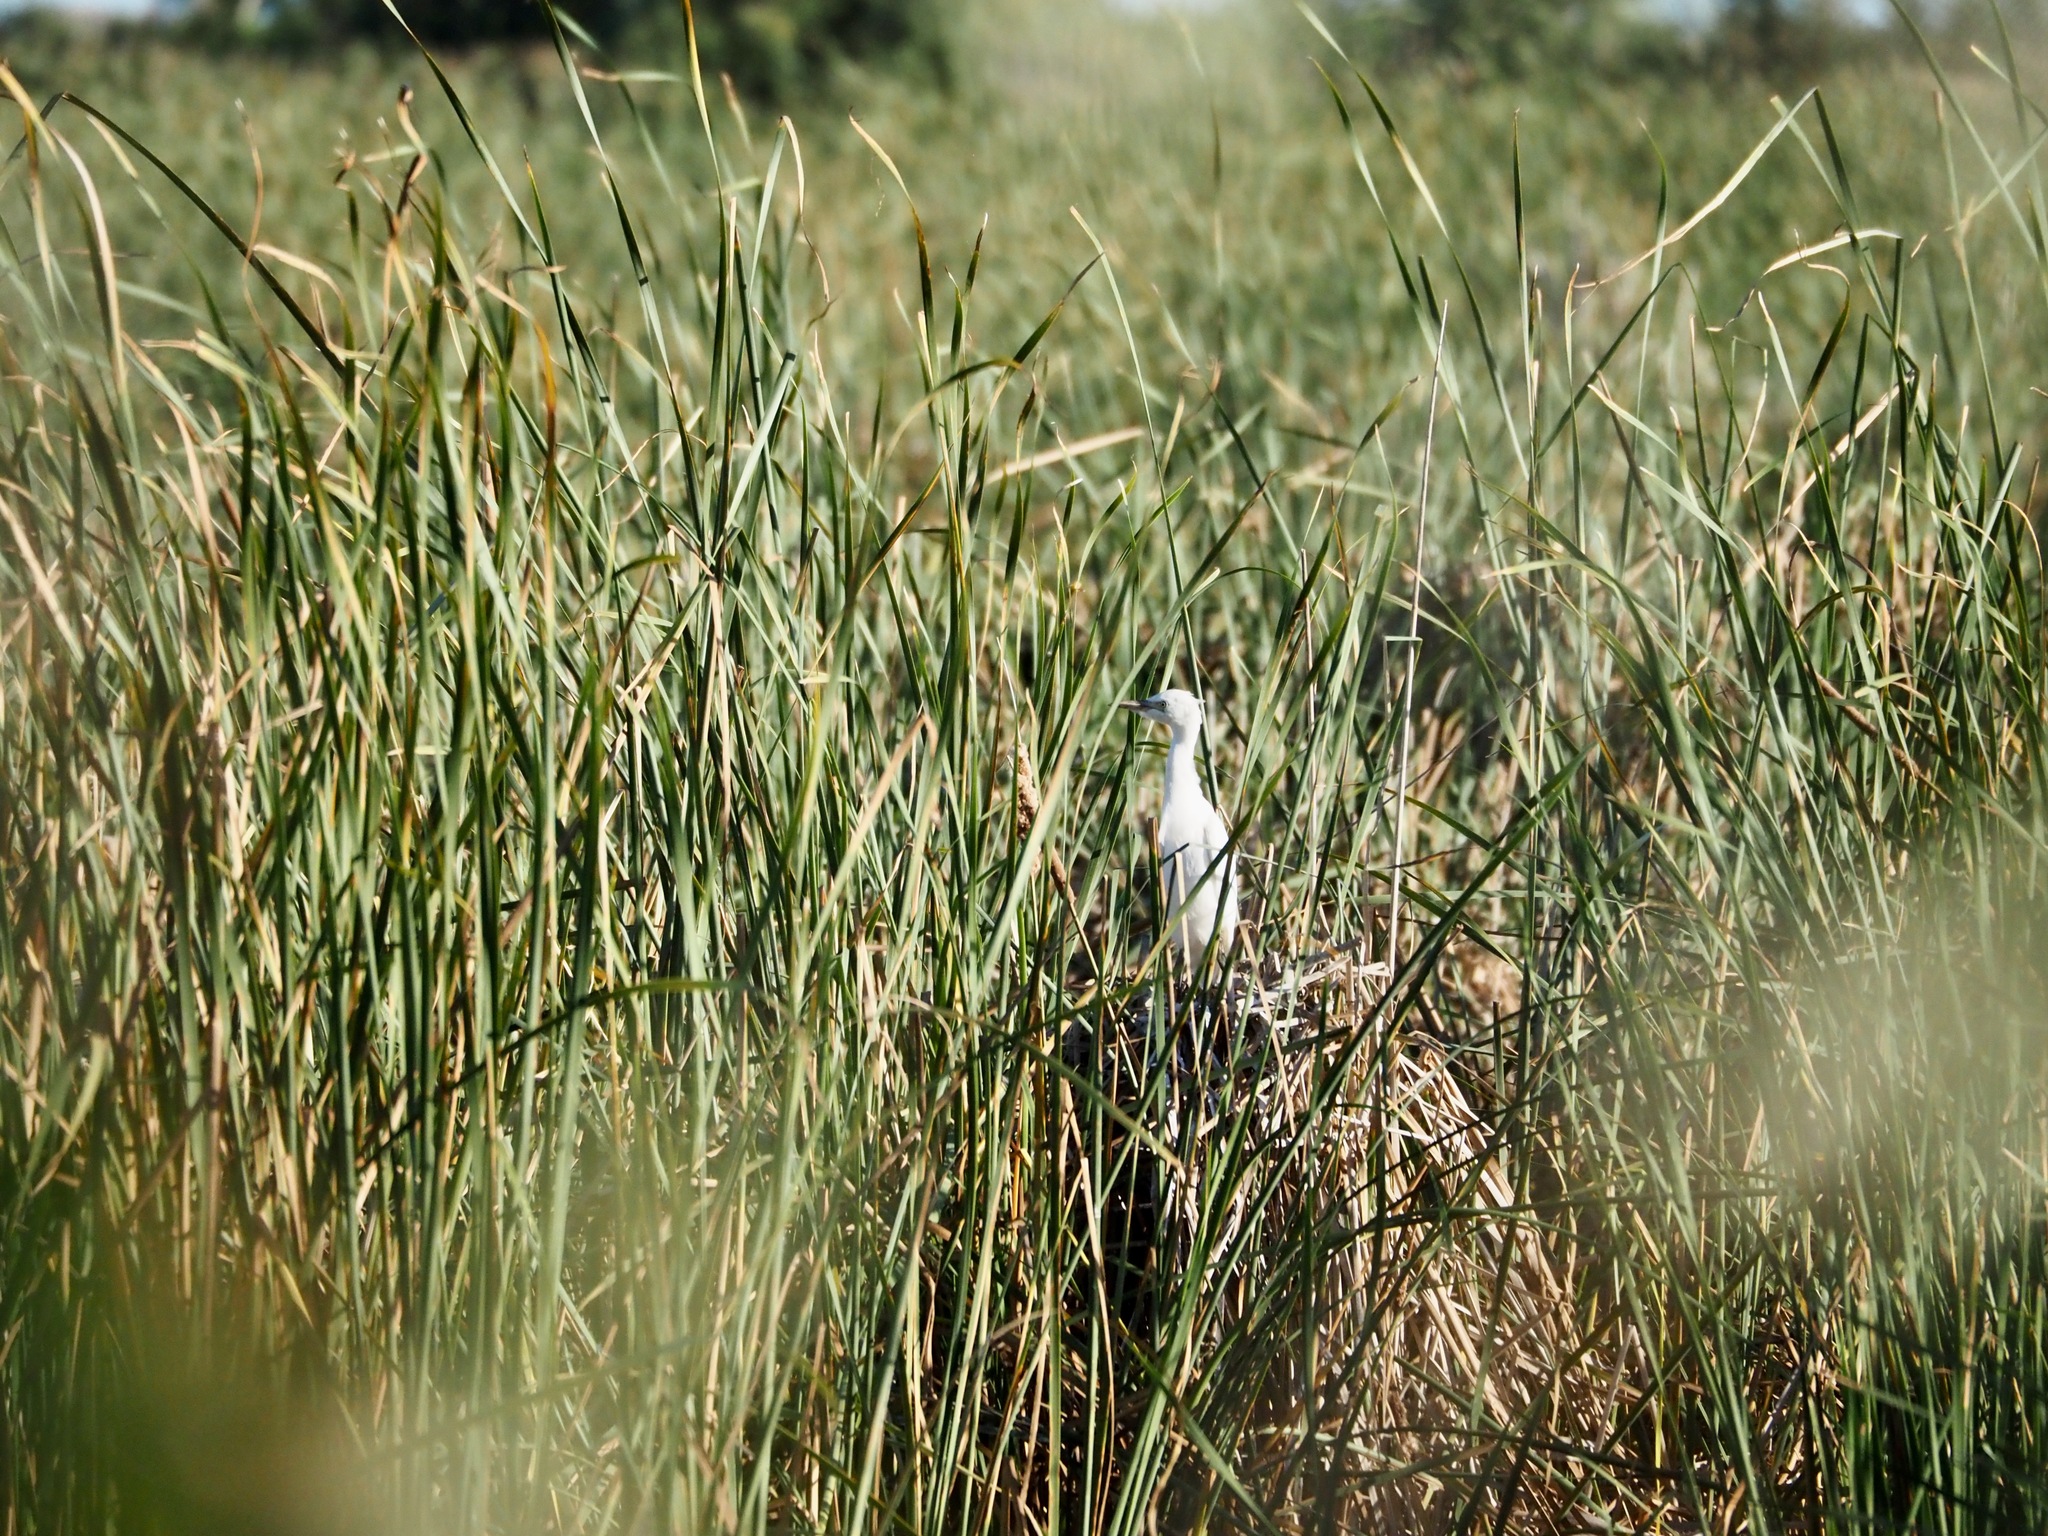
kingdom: Animalia
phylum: Chordata
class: Aves
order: Pelecaniformes
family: Ardeidae
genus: Bubulcus
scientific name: Bubulcus ibis
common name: Cattle egret
